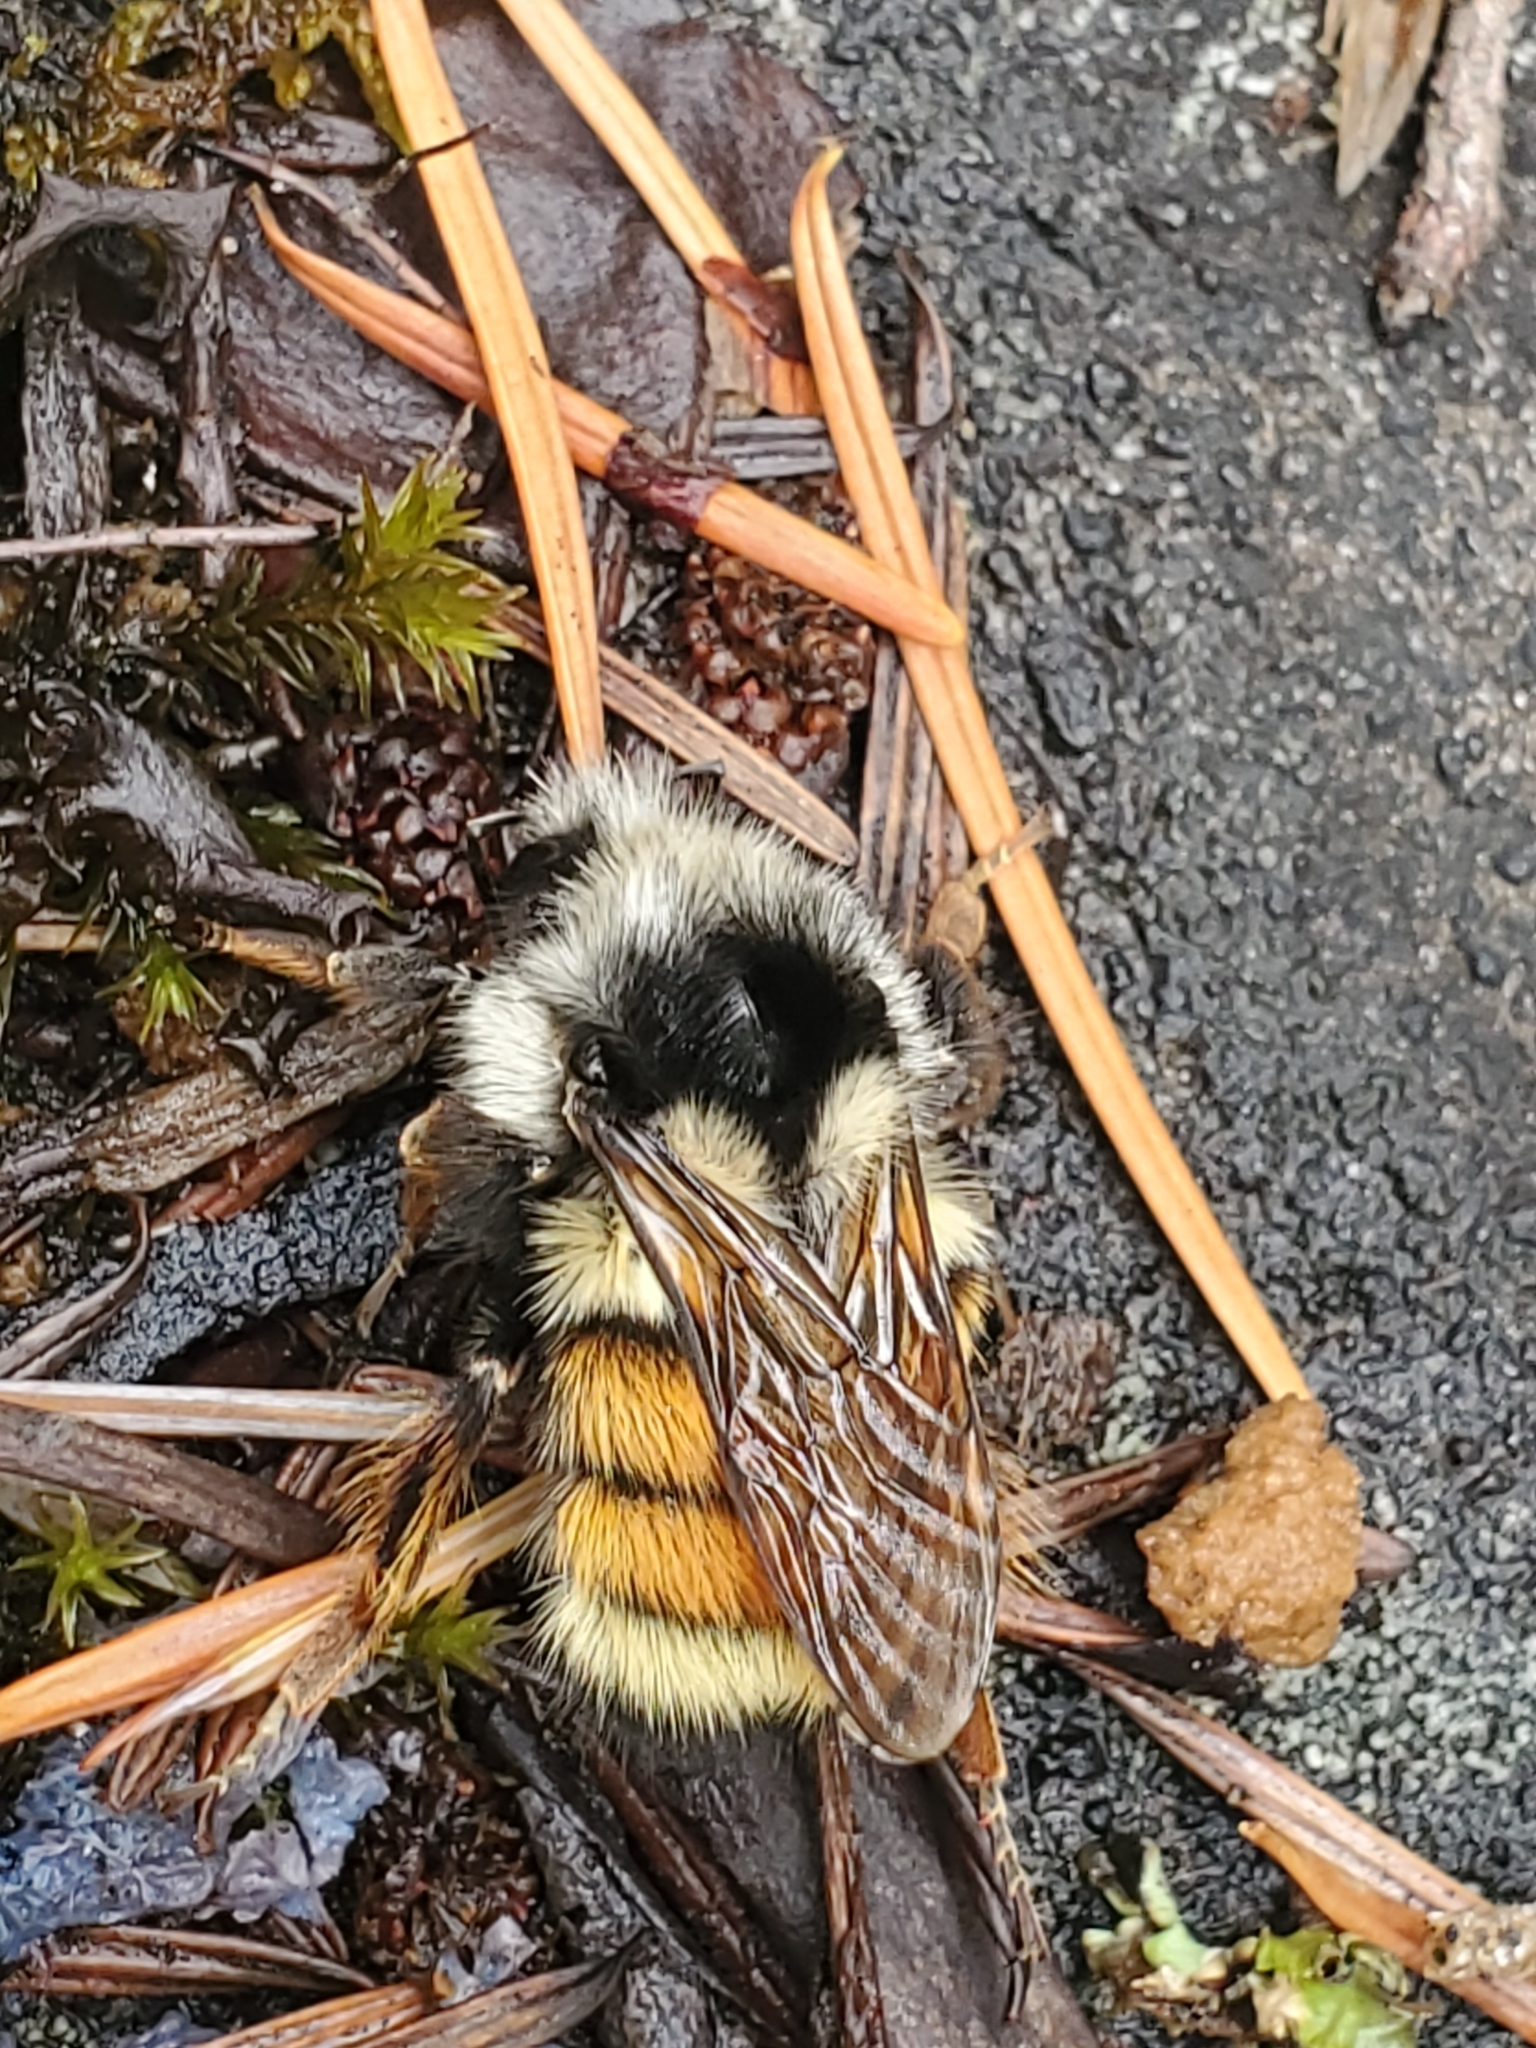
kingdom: Animalia
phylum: Arthropoda
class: Insecta
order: Hymenoptera
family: Apidae
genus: Bombus
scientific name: Bombus vancouverensis
